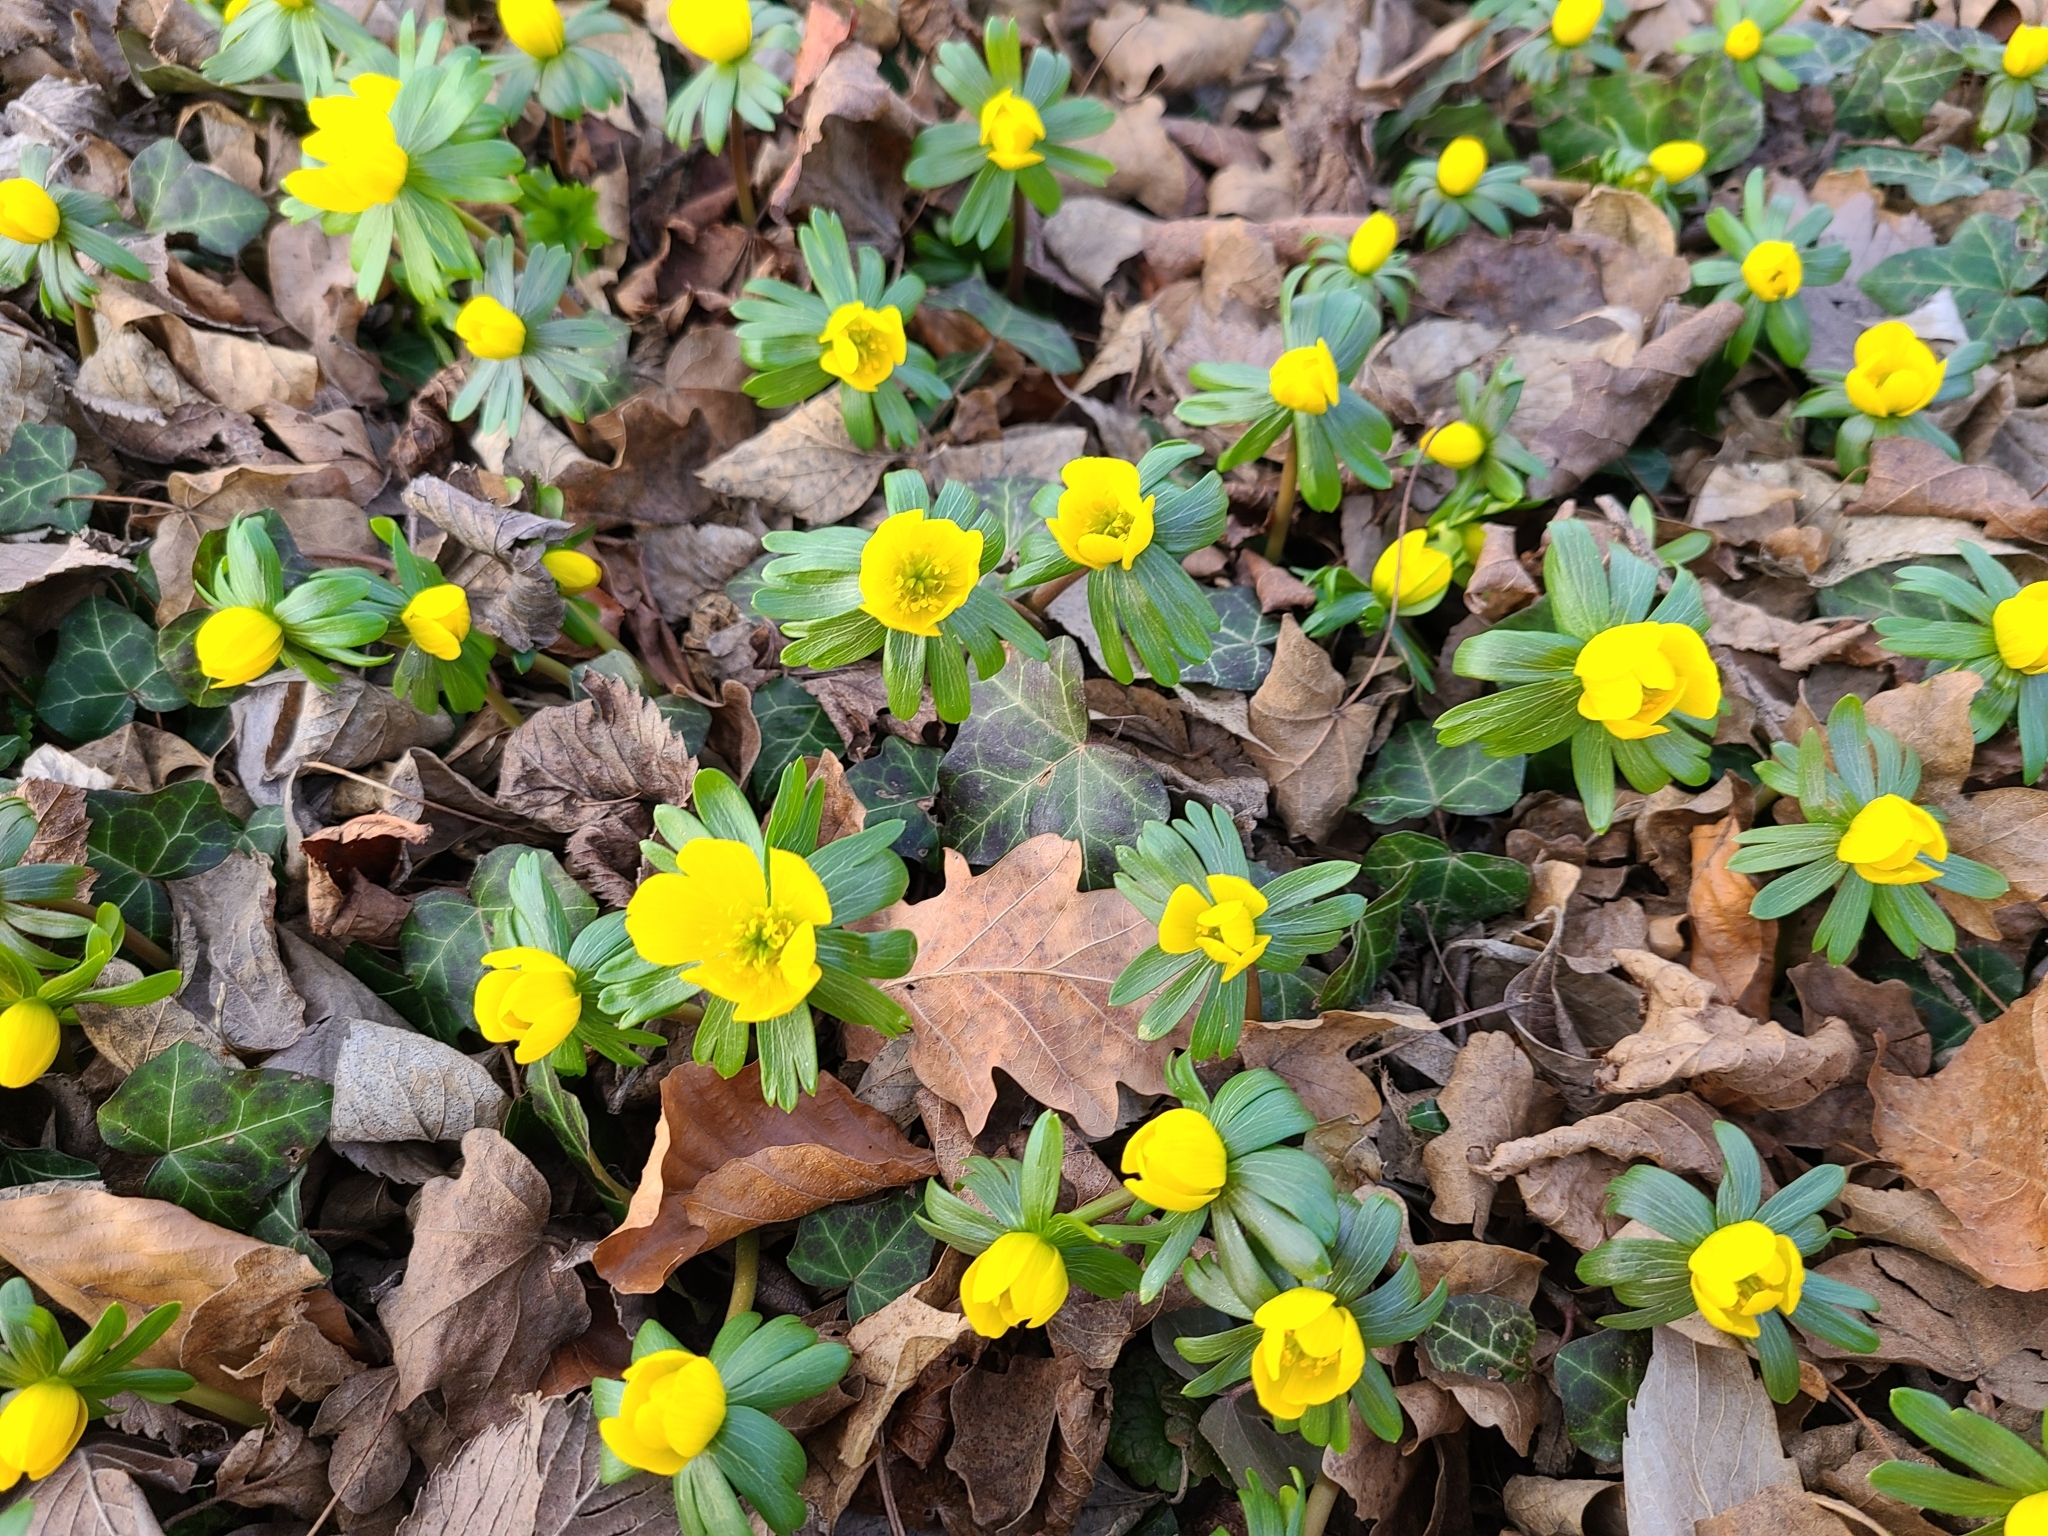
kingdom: Plantae
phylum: Tracheophyta
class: Magnoliopsida
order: Ranunculales
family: Ranunculaceae
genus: Eranthis
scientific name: Eranthis hyemalis
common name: Winter aconite
